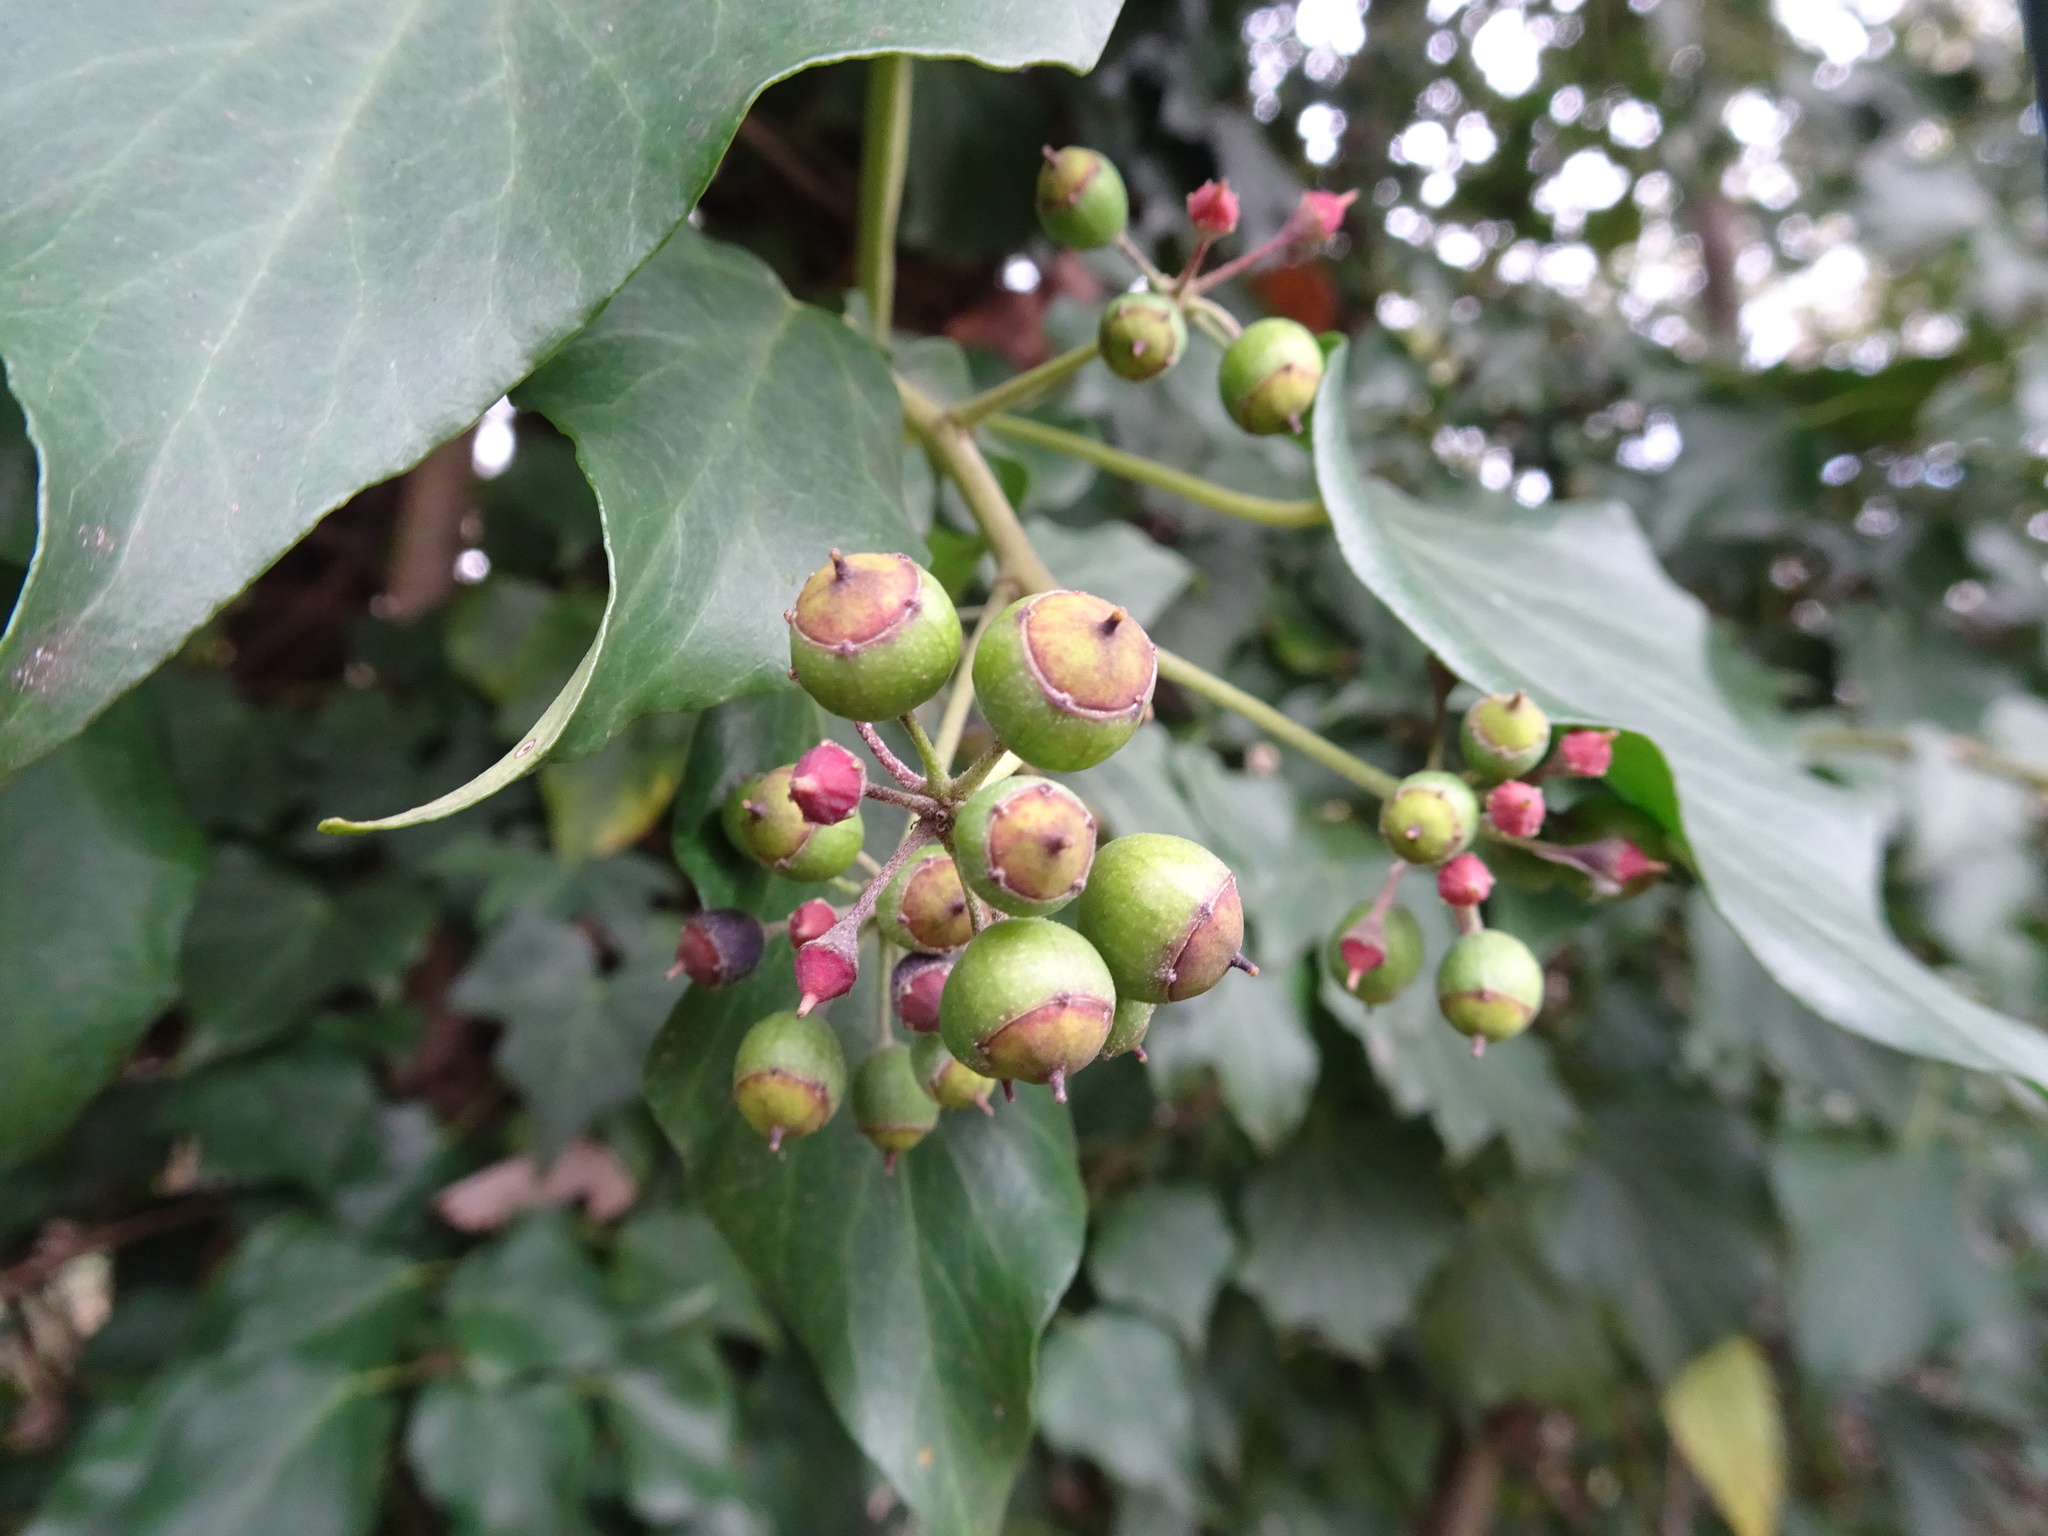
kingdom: Plantae
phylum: Tracheophyta
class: Magnoliopsida
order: Apiales
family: Araliaceae
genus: Hedera
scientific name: Hedera helix
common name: Ivy
